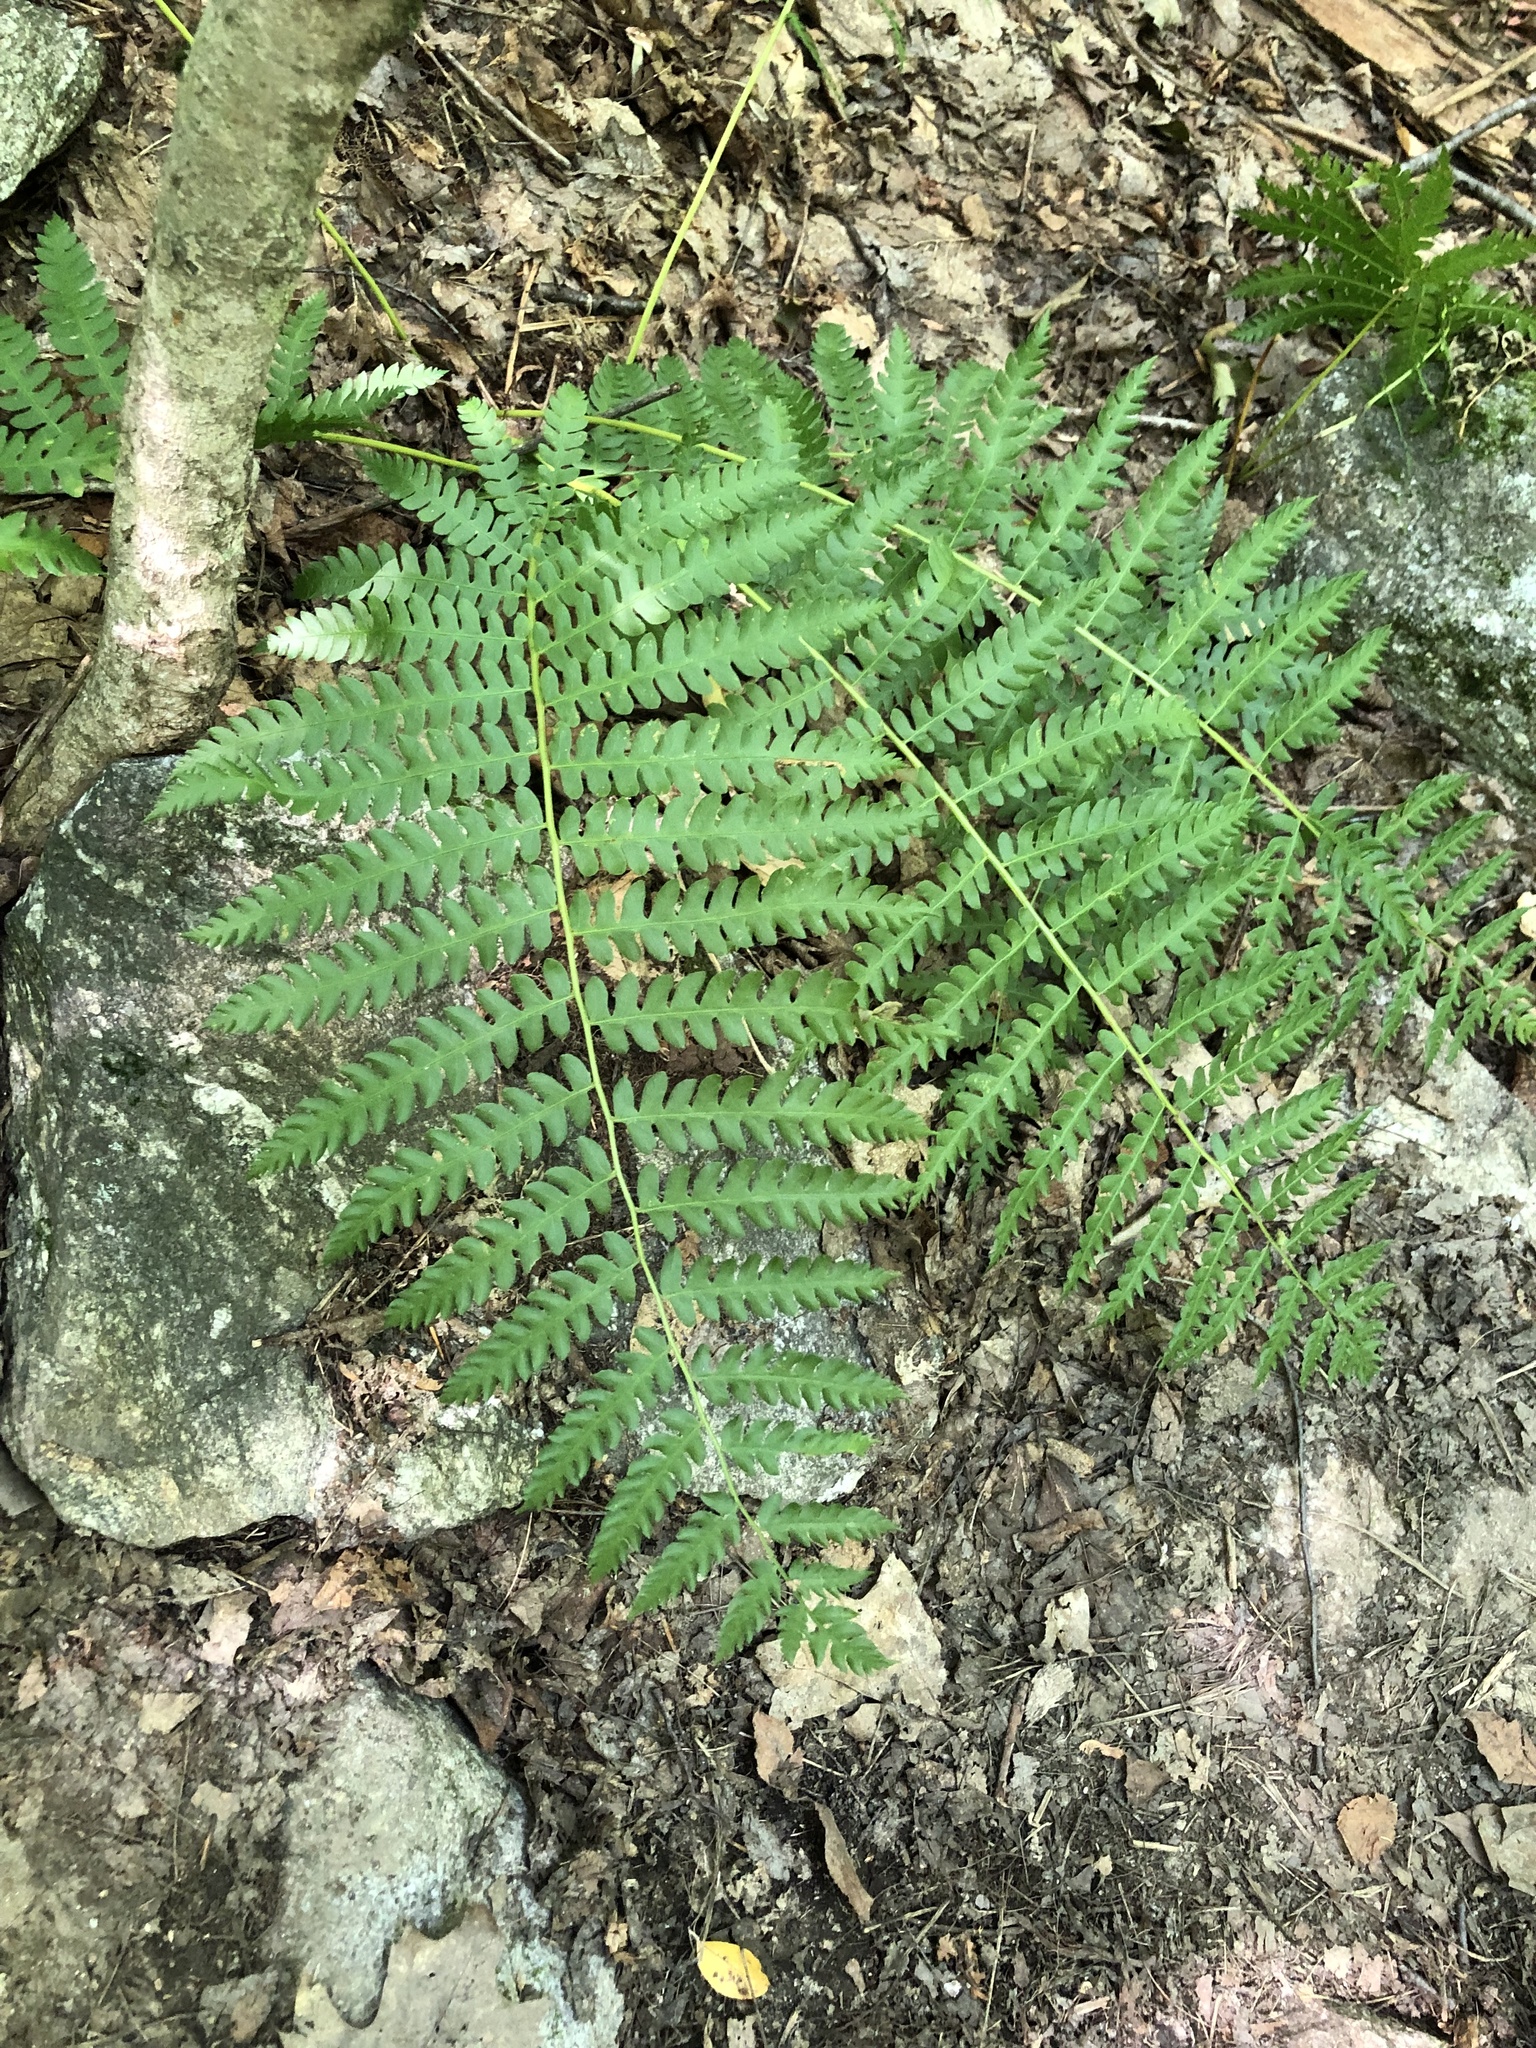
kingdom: Plantae
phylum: Tracheophyta
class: Polypodiopsida
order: Osmundales
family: Osmundaceae
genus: Osmundastrum
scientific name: Osmundastrum cinnamomeum
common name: Cinnamon fern
